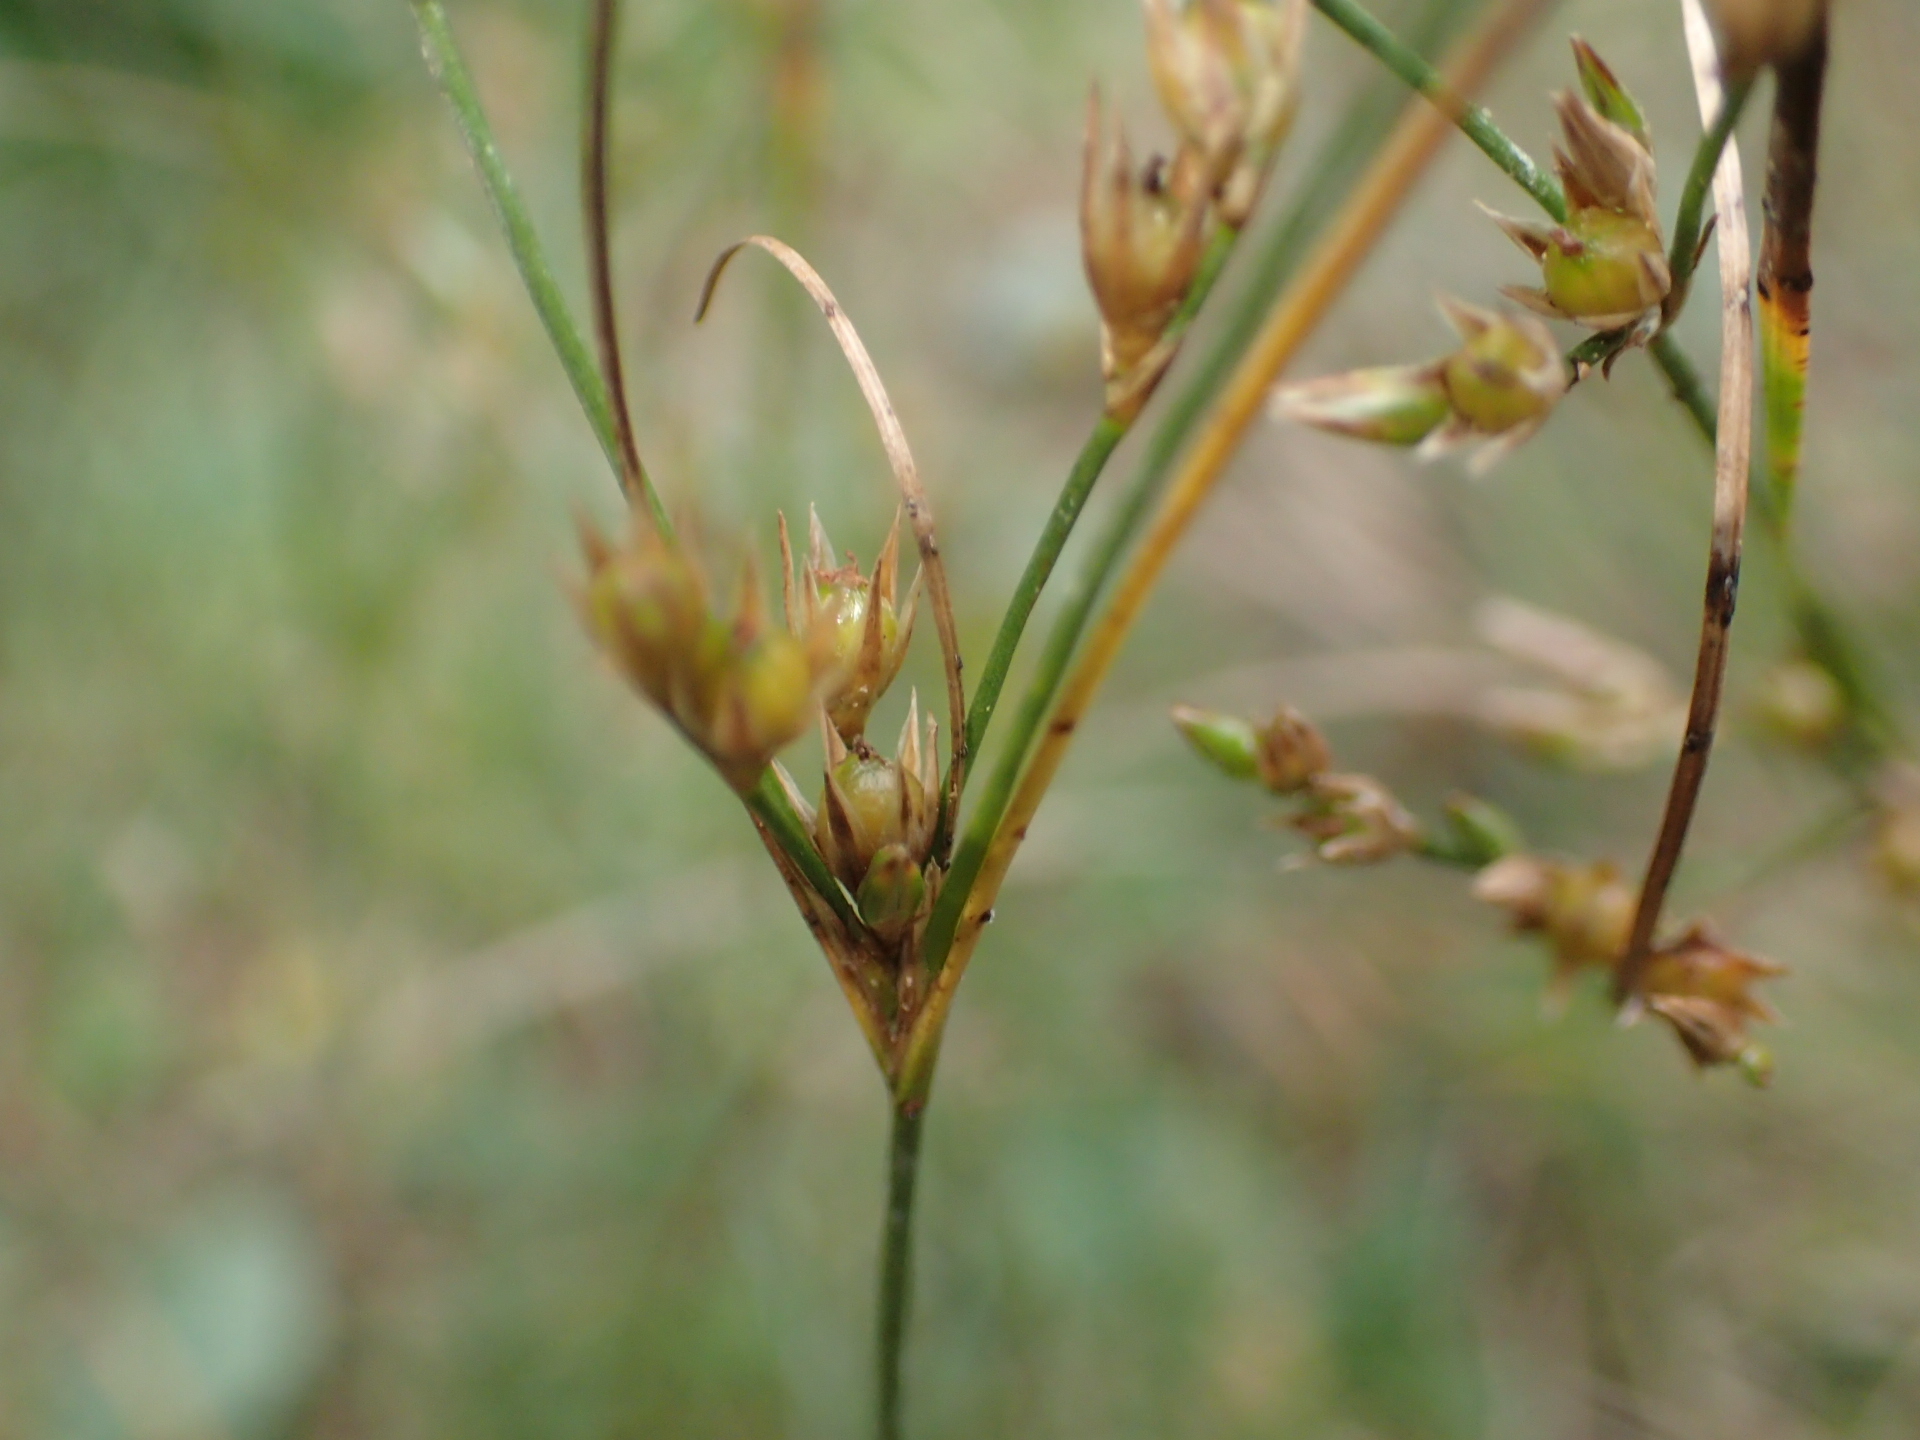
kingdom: Plantae
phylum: Tracheophyta
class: Liliopsida
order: Poales
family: Juncaceae
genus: Juncus
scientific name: Juncus tenuis
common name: Slender rush
